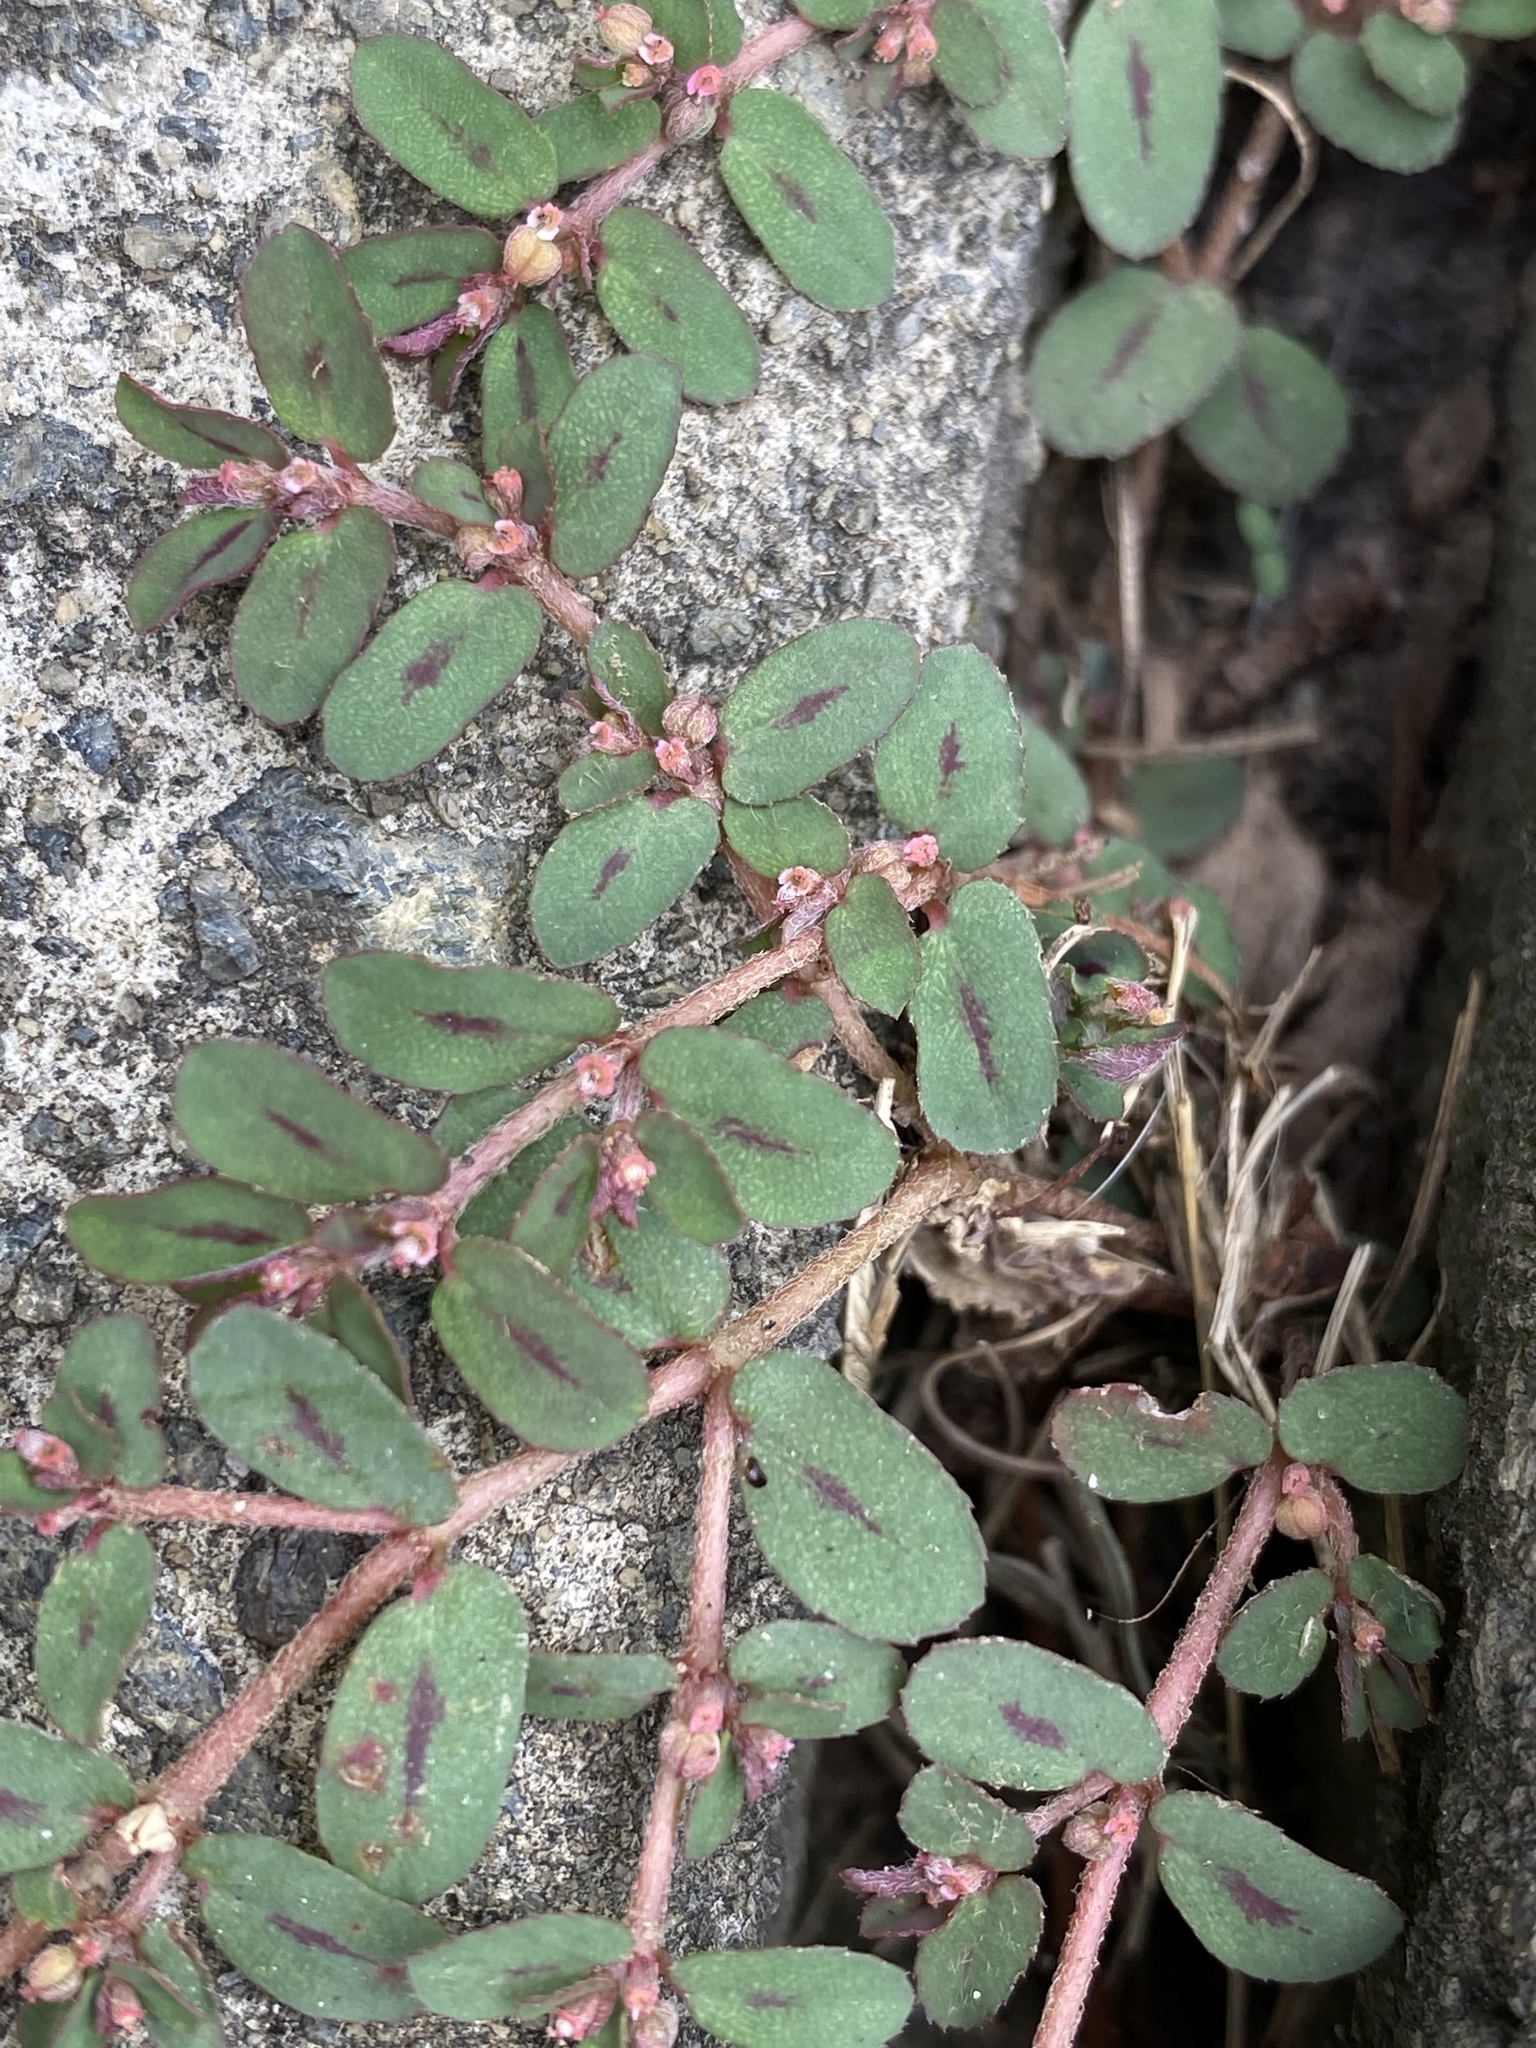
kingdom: Plantae
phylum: Tracheophyta
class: Magnoliopsida
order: Malpighiales
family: Euphorbiaceae
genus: Euphorbia
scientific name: Euphorbia maculata
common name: Spotted spurge
